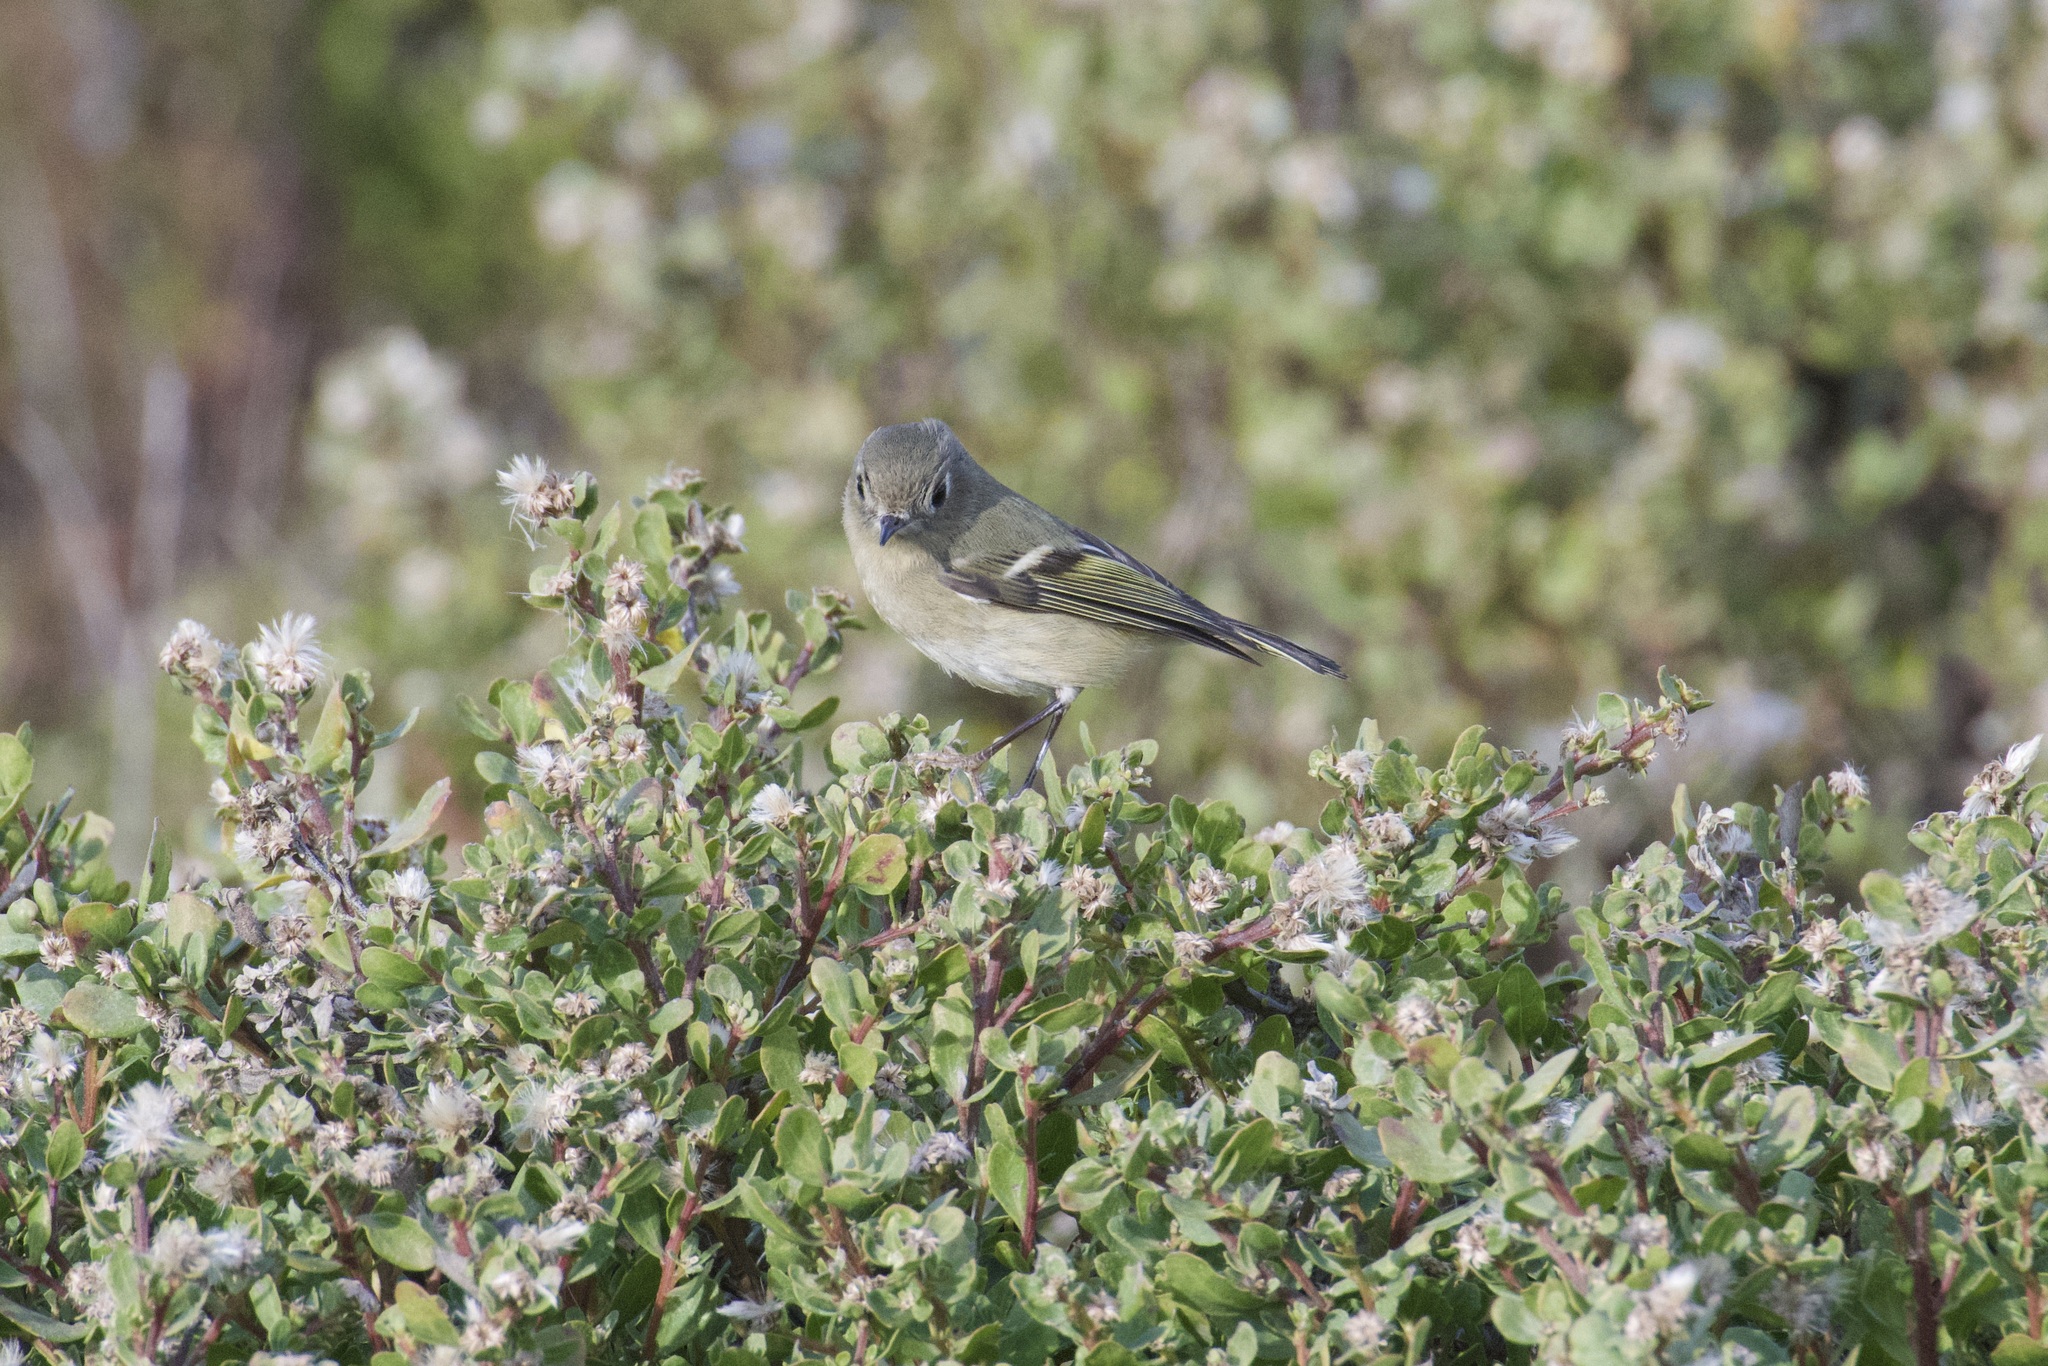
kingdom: Animalia
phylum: Chordata
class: Aves
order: Passeriformes
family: Regulidae
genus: Regulus
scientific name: Regulus calendula
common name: Ruby-crowned kinglet
